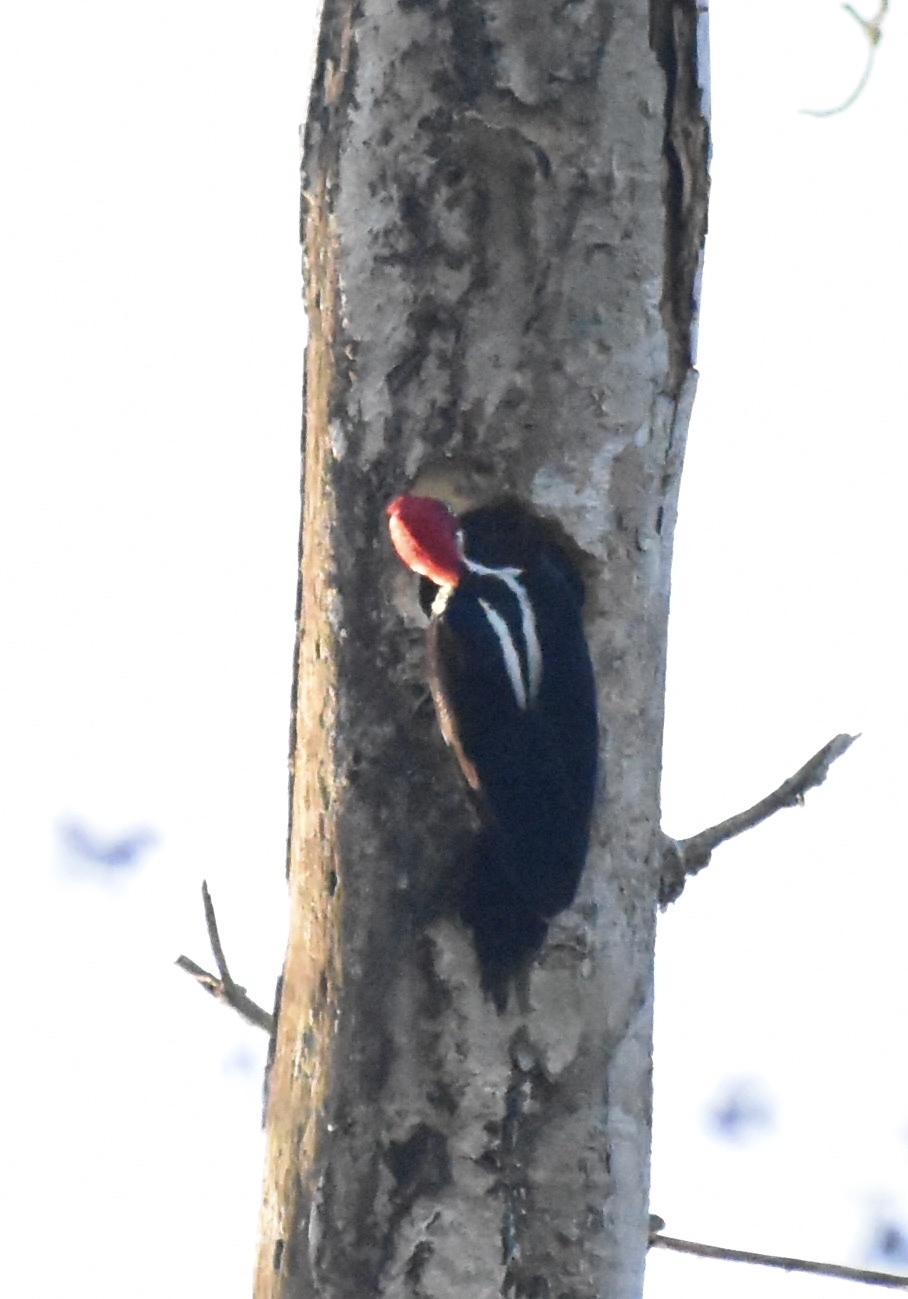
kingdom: Animalia
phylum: Chordata
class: Aves
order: Piciformes
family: Picidae
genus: Campephilus
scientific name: Campephilus melanoleucos
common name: Crimson-crested woodpecker
